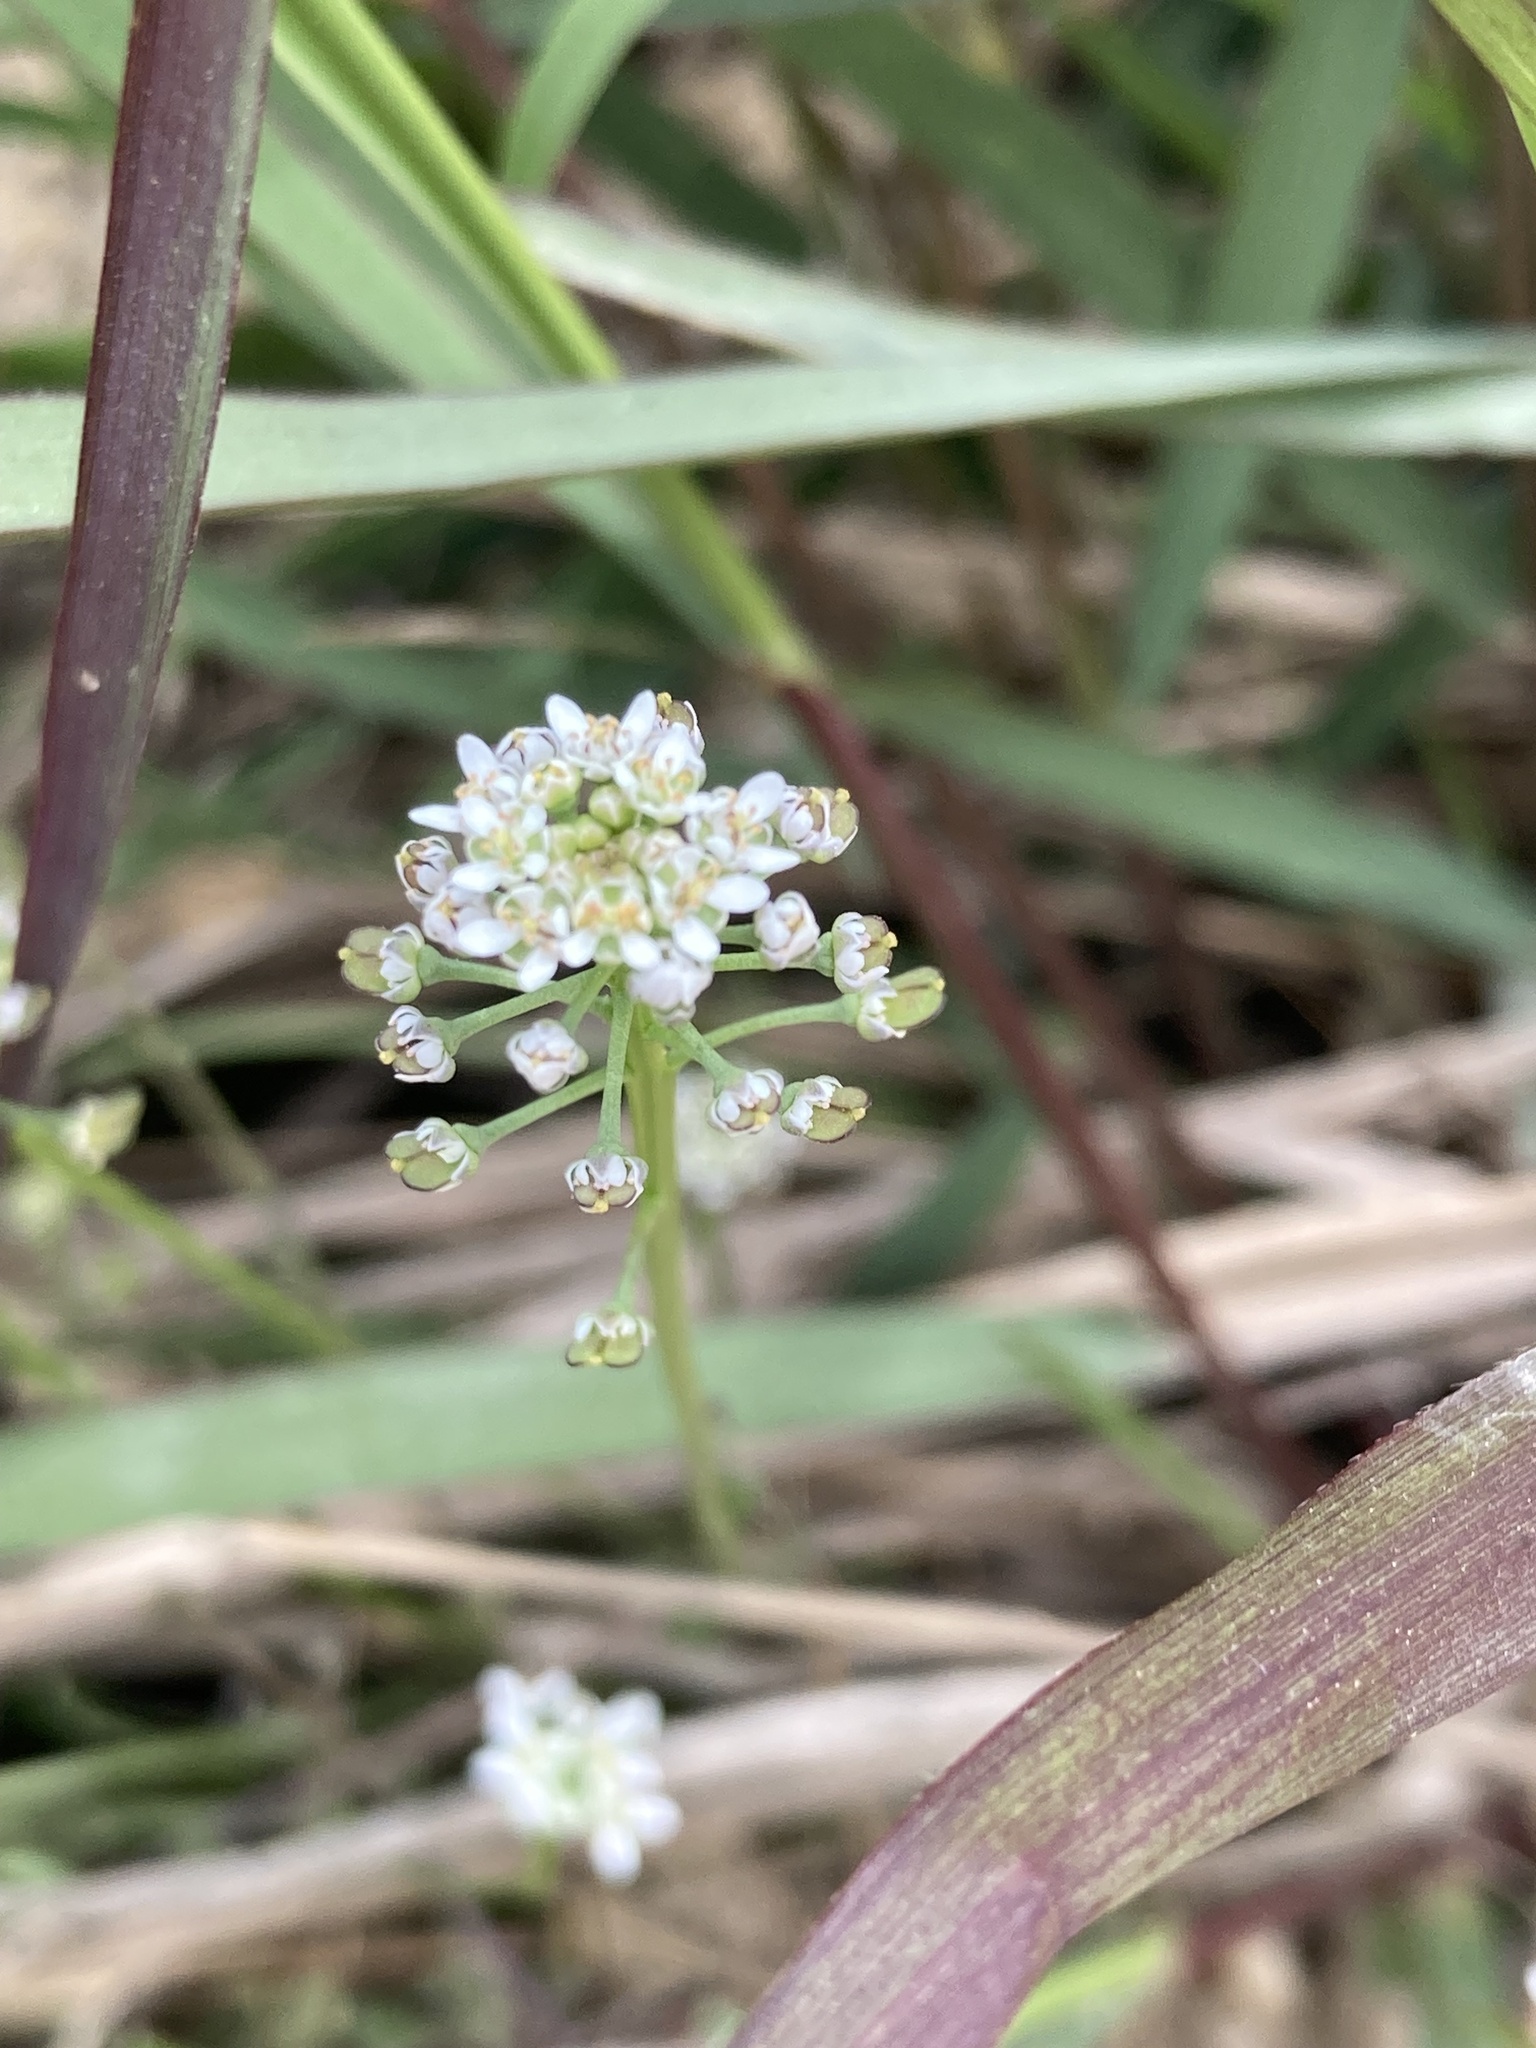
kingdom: Plantae
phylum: Tracheophyta
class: Magnoliopsida
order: Brassicales
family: Brassicaceae
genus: Teesdalia
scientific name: Teesdalia nudicaulis
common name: Shepherd's cress
